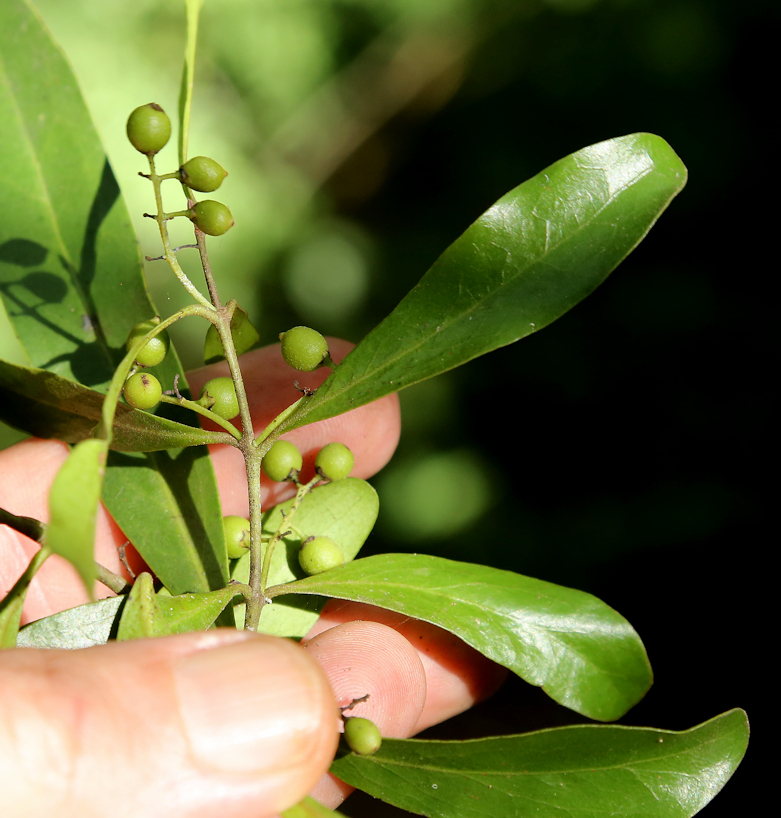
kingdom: Plantae
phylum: Tracheophyta
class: Magnoliopsida
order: Ericales
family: Ebenaceae
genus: Euclea
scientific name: Euclea racemosa
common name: Dune guarri
